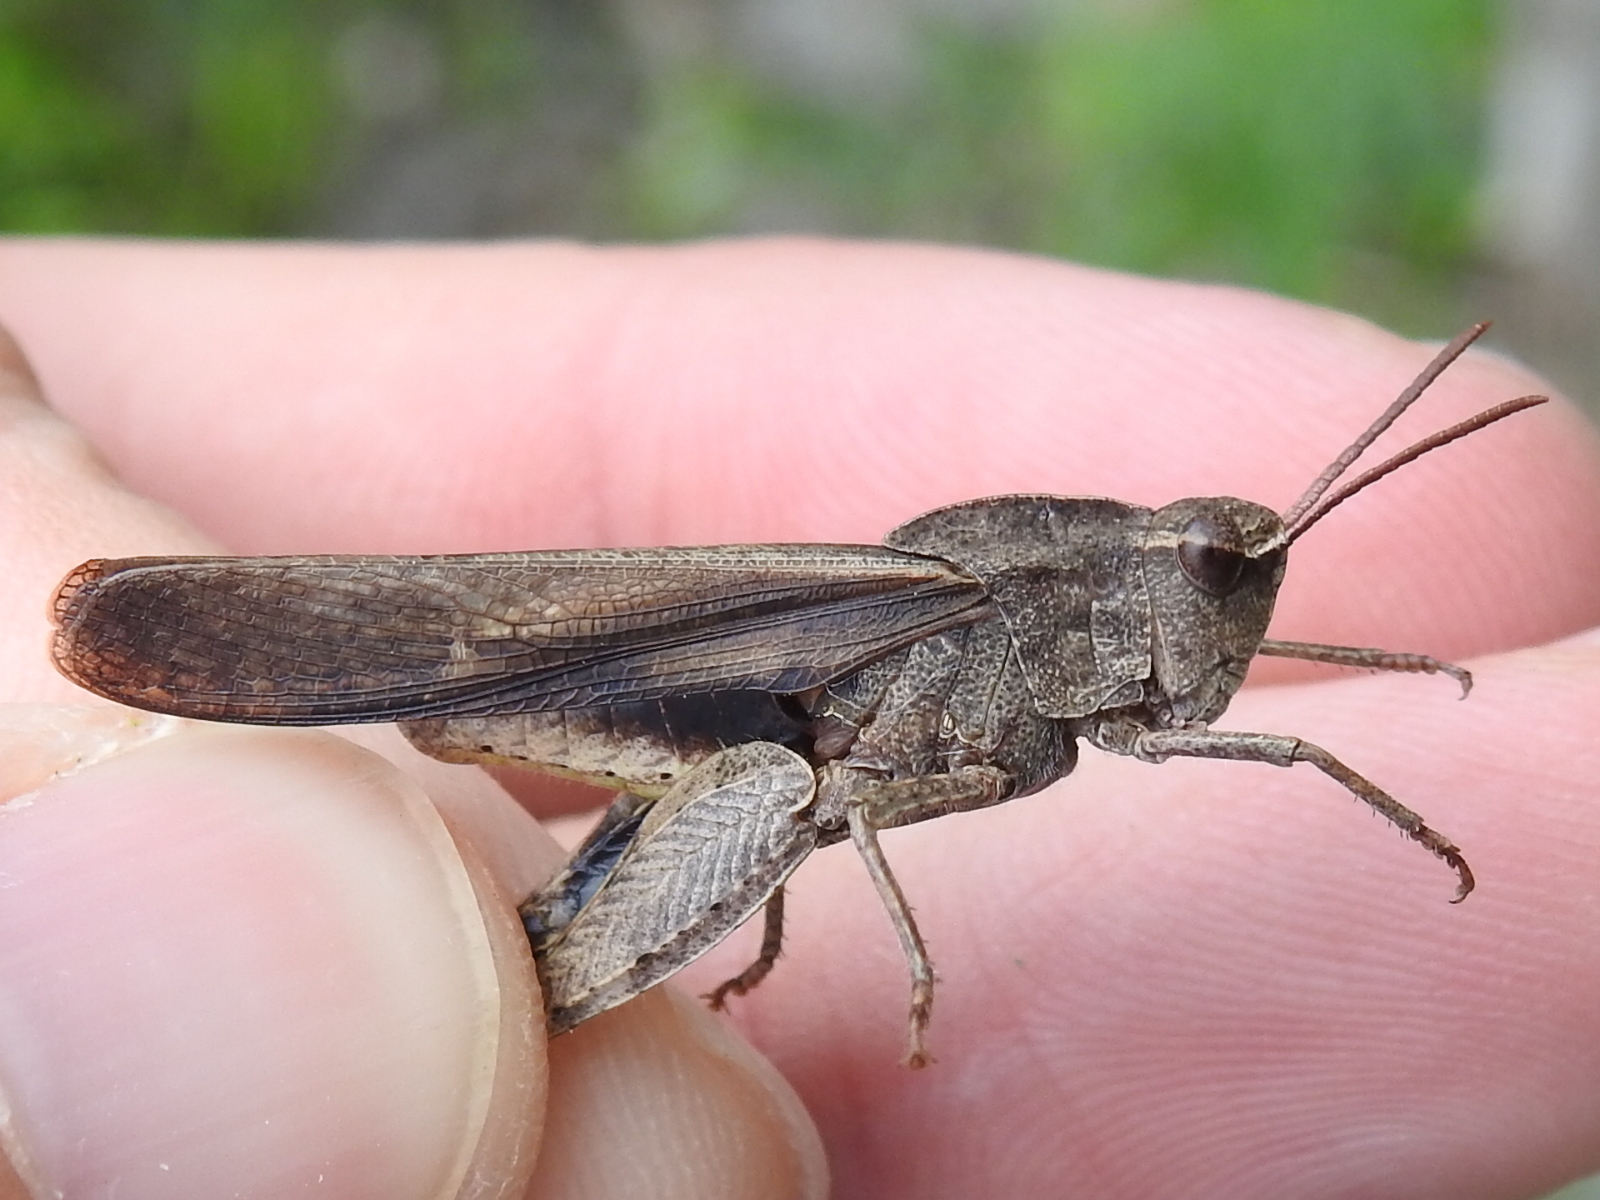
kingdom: Animalia
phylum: Arthropoda
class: Insecta
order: Orthoptera
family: Acrididae
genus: Chortophaga
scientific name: Chortophaga viridifasciata
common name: Green-striped grasshopper
